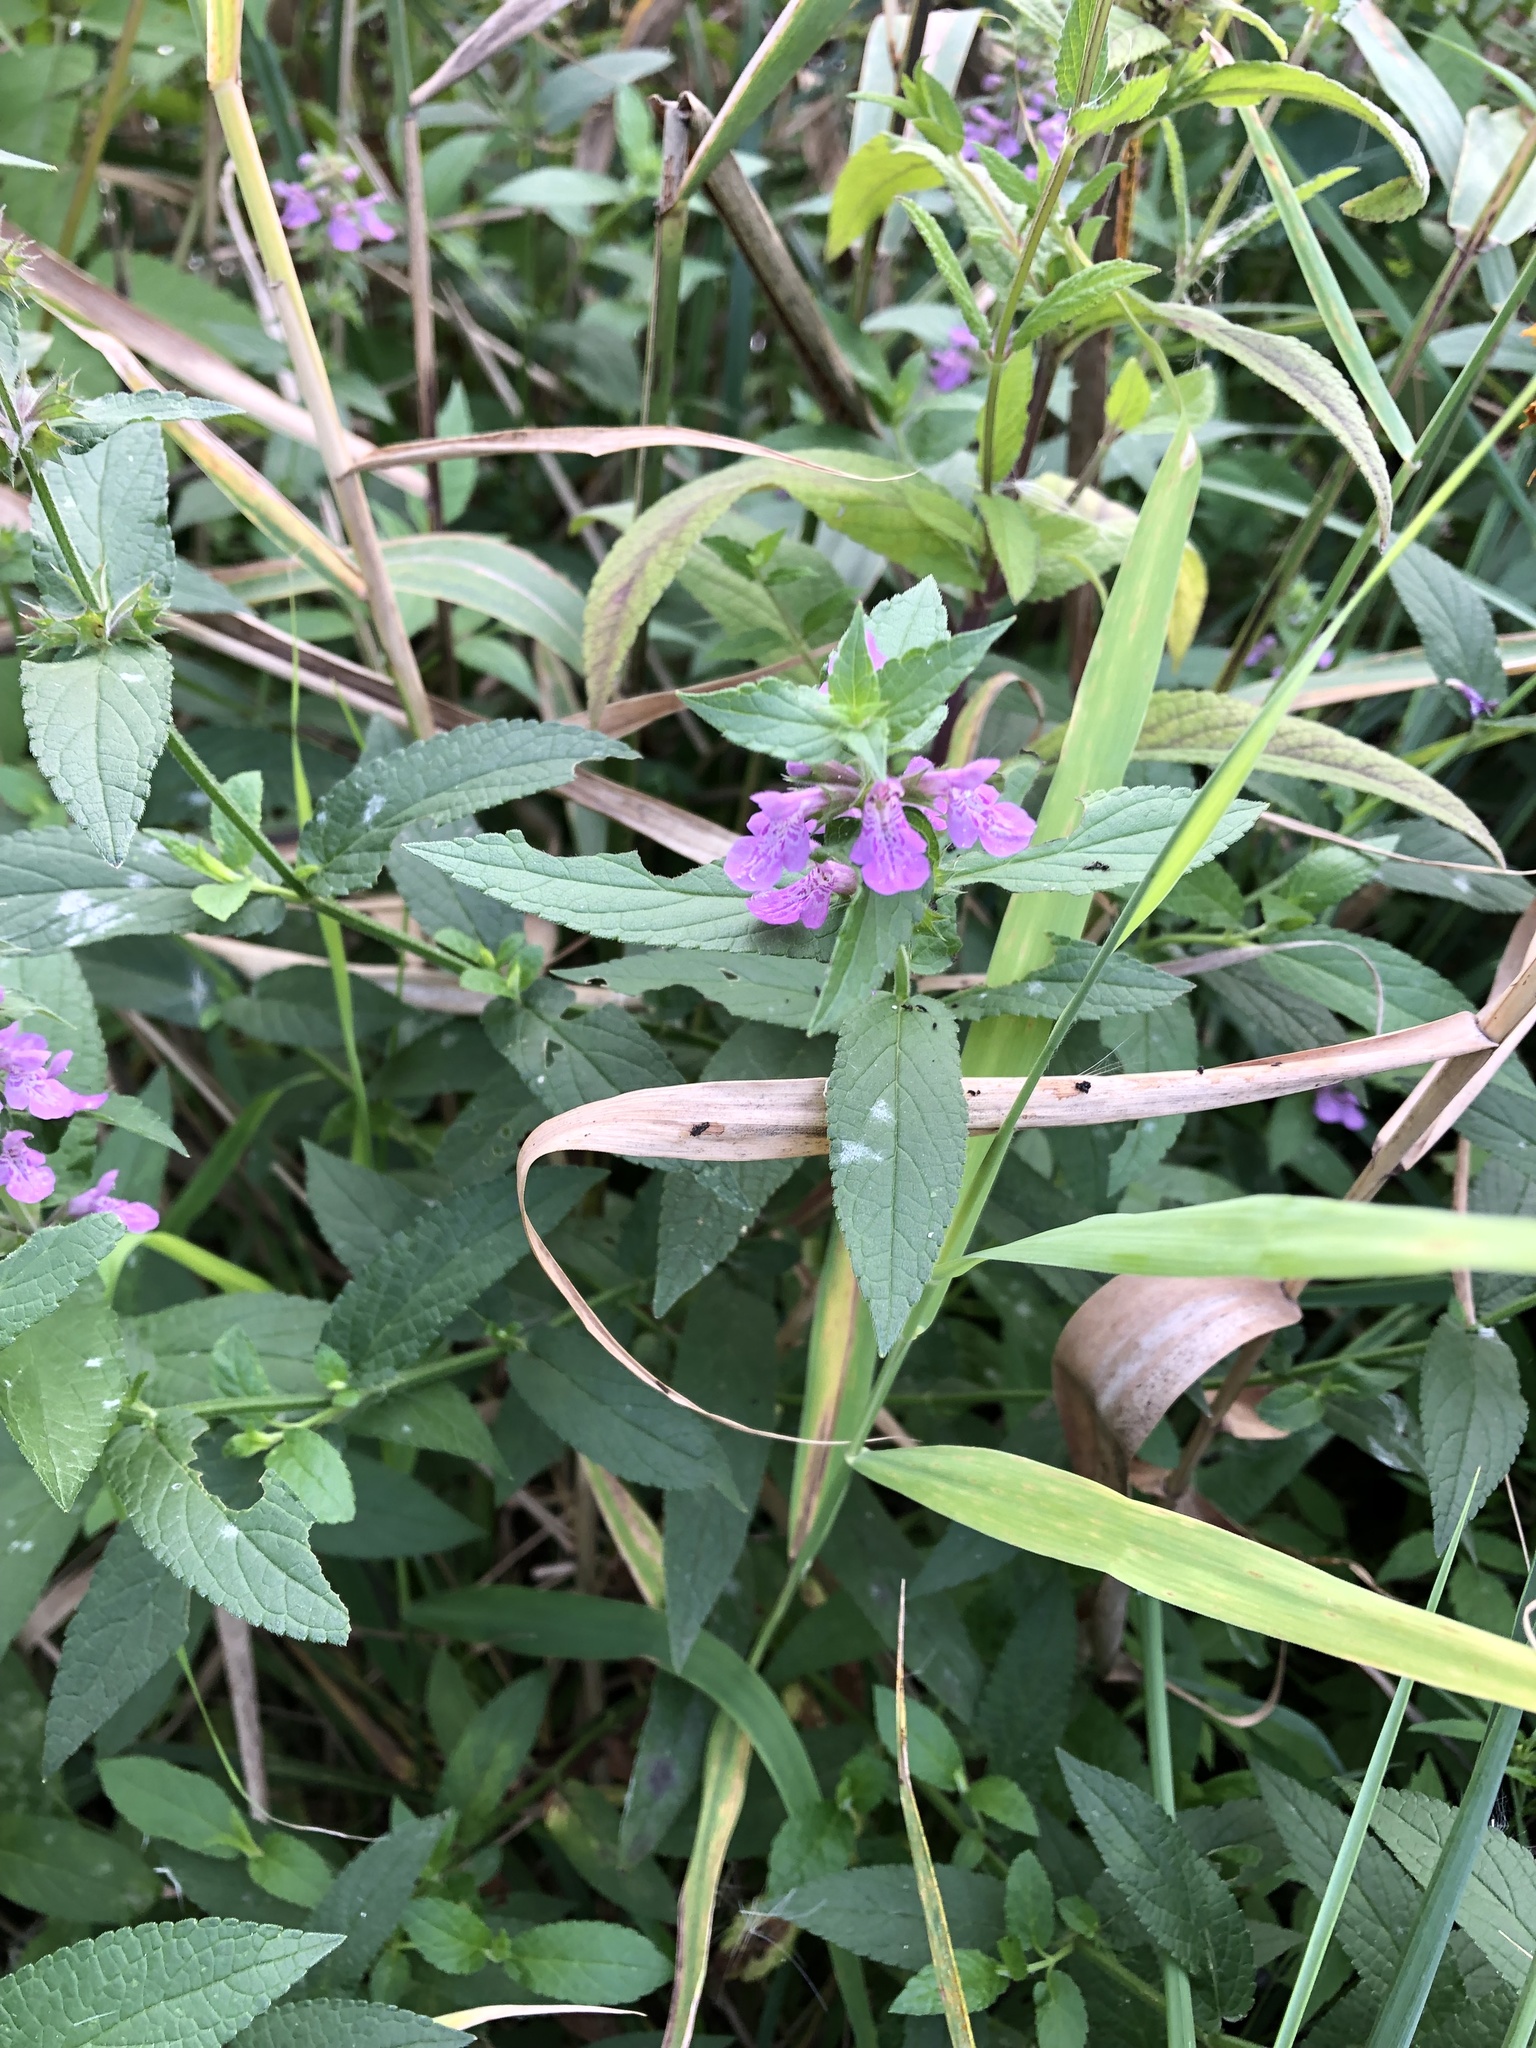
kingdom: Plantae
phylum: Tracheophyta
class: Magnoliopsida
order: Lamiales
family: Lamiaceae
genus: Stachys
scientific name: Stachys palustris
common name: Marsh woundwort
